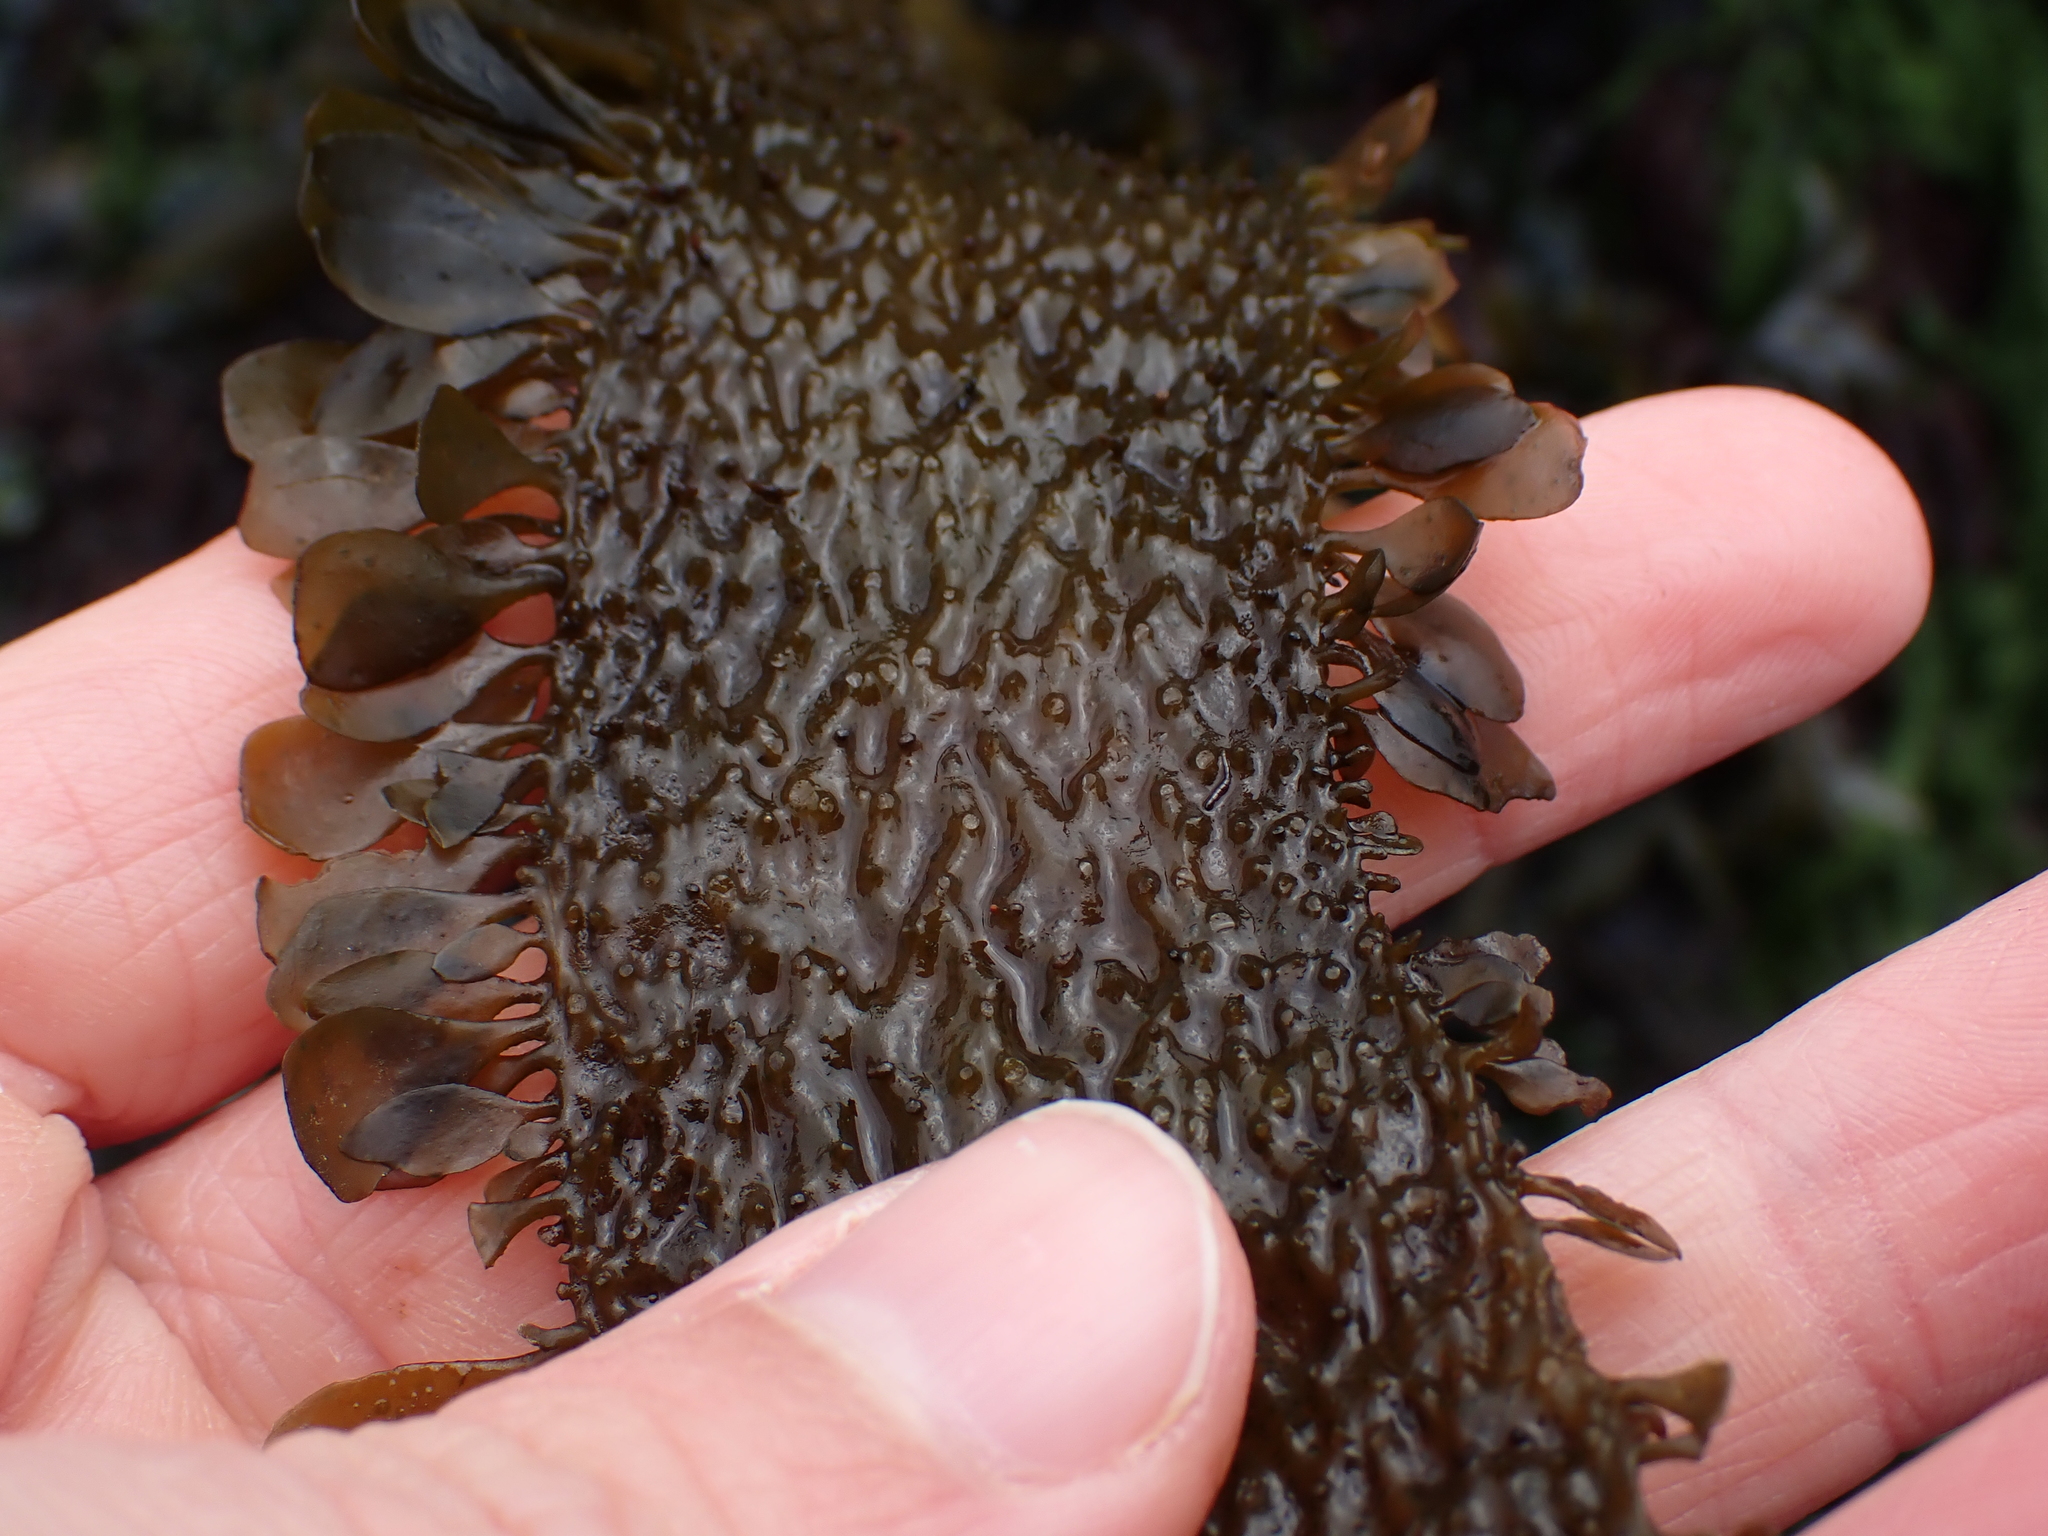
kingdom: Chromista
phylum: Ochrophyta
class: Phaeophyceae
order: Laminariales
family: Lessoniaceae
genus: Egregia
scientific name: Egregia menziesii
